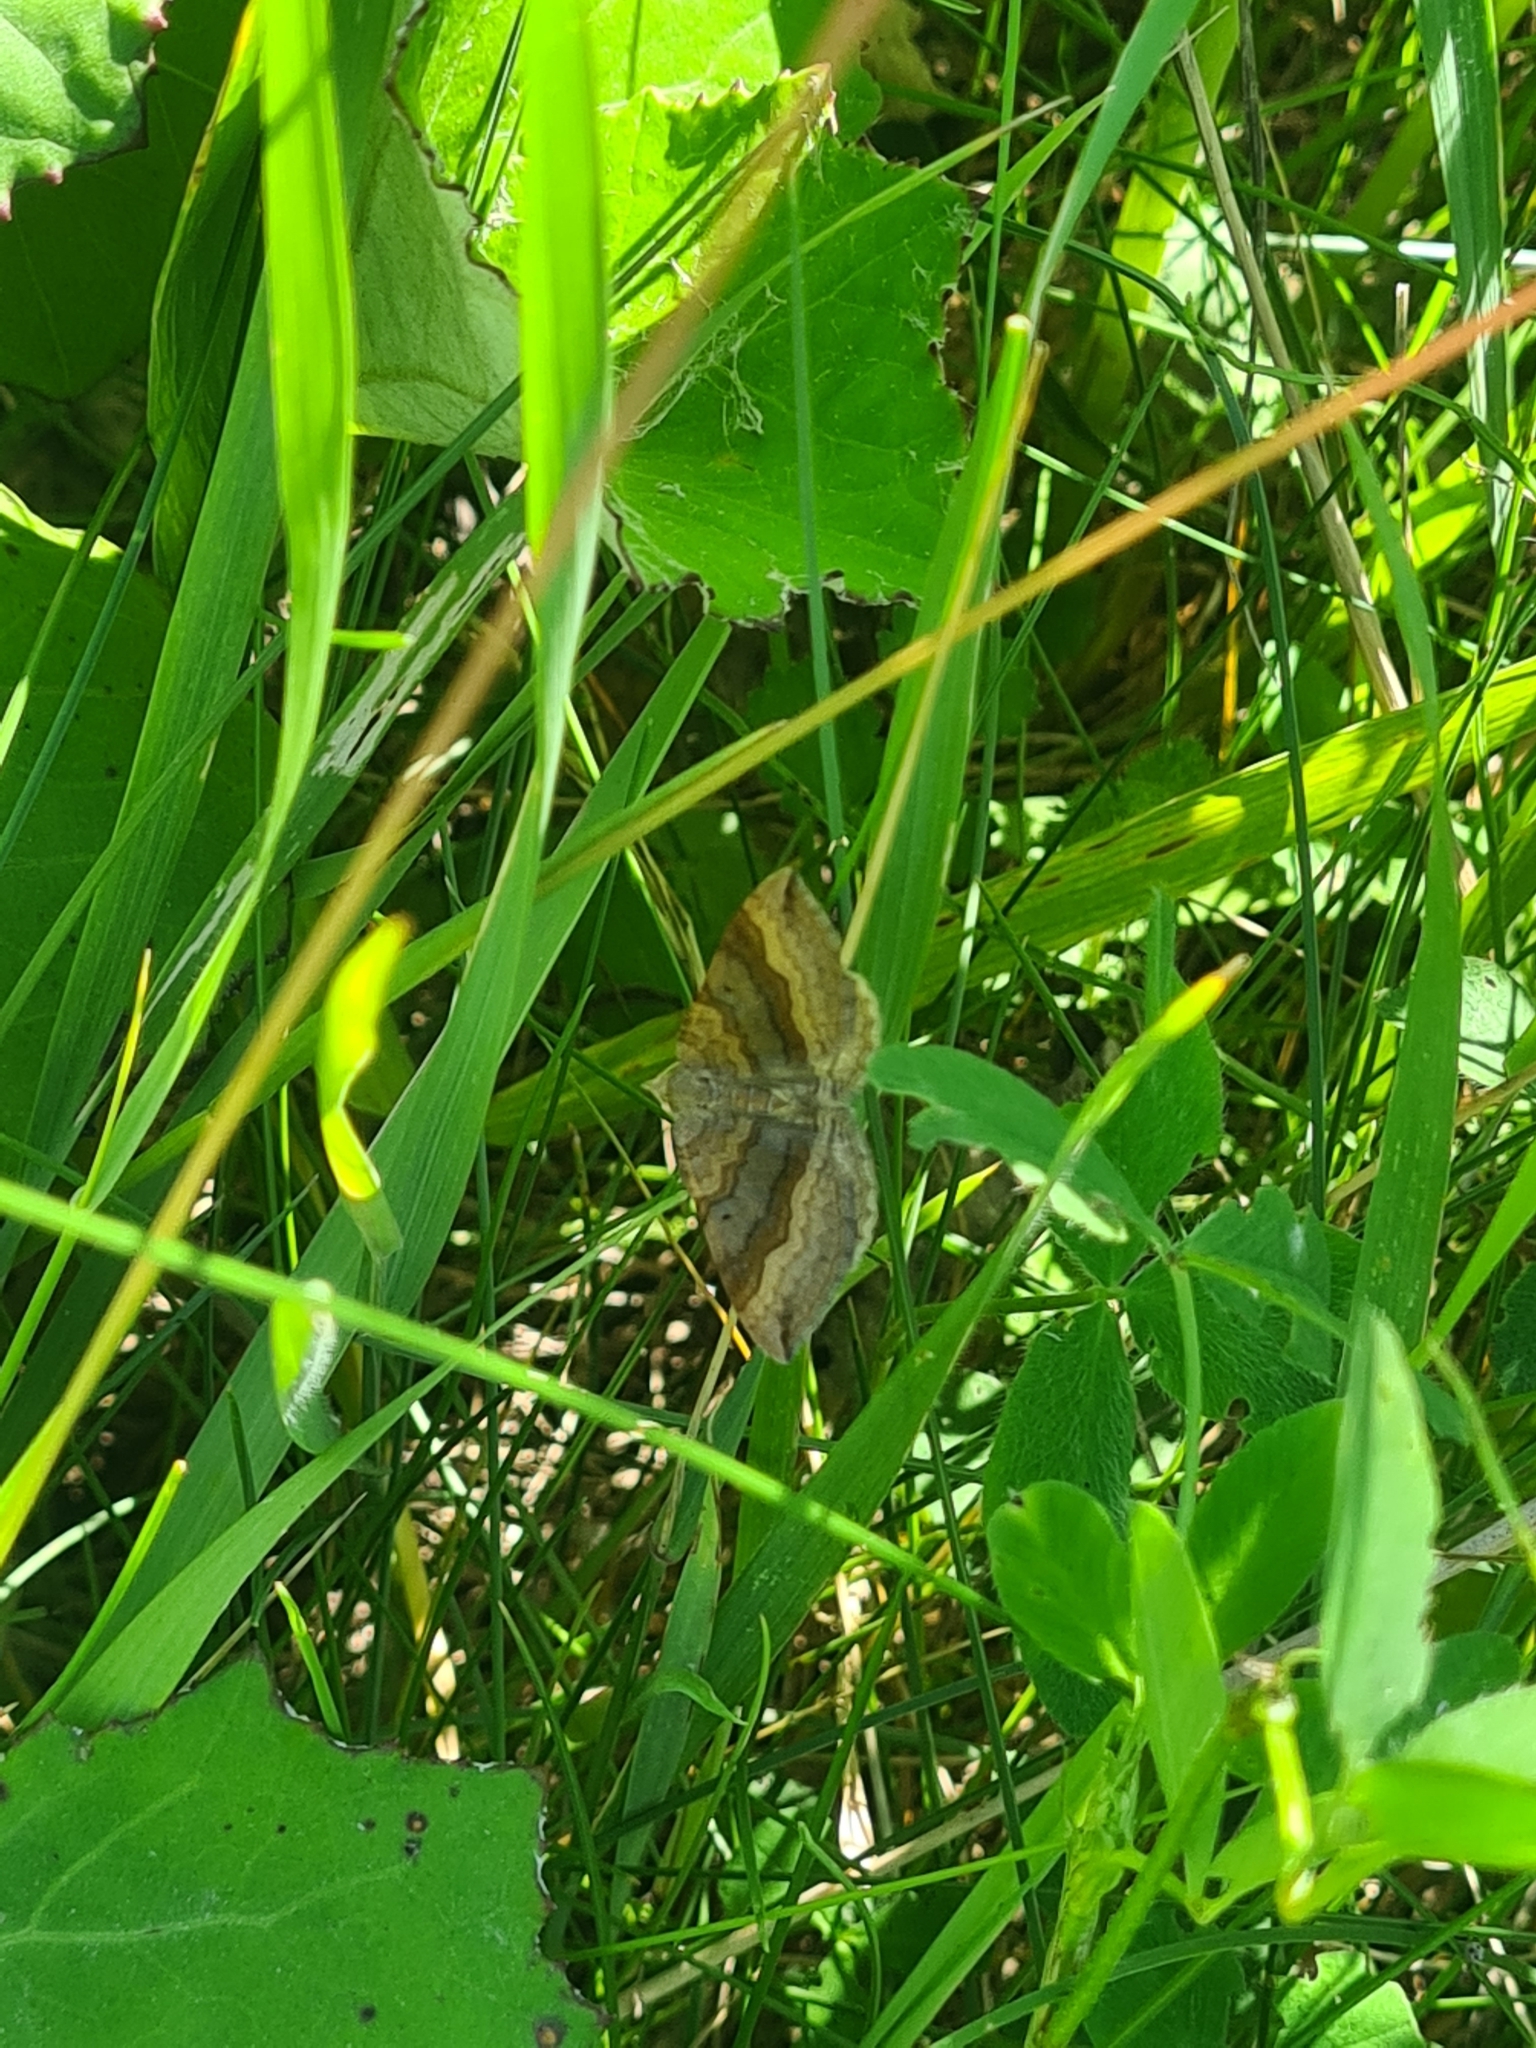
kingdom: Animalia
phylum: Arthropoda
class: Insecta
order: Lepidoptera
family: Geometridae
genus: Scotopteryx
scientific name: Scotopteryx chenopodiata
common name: Shaded broad-bar
